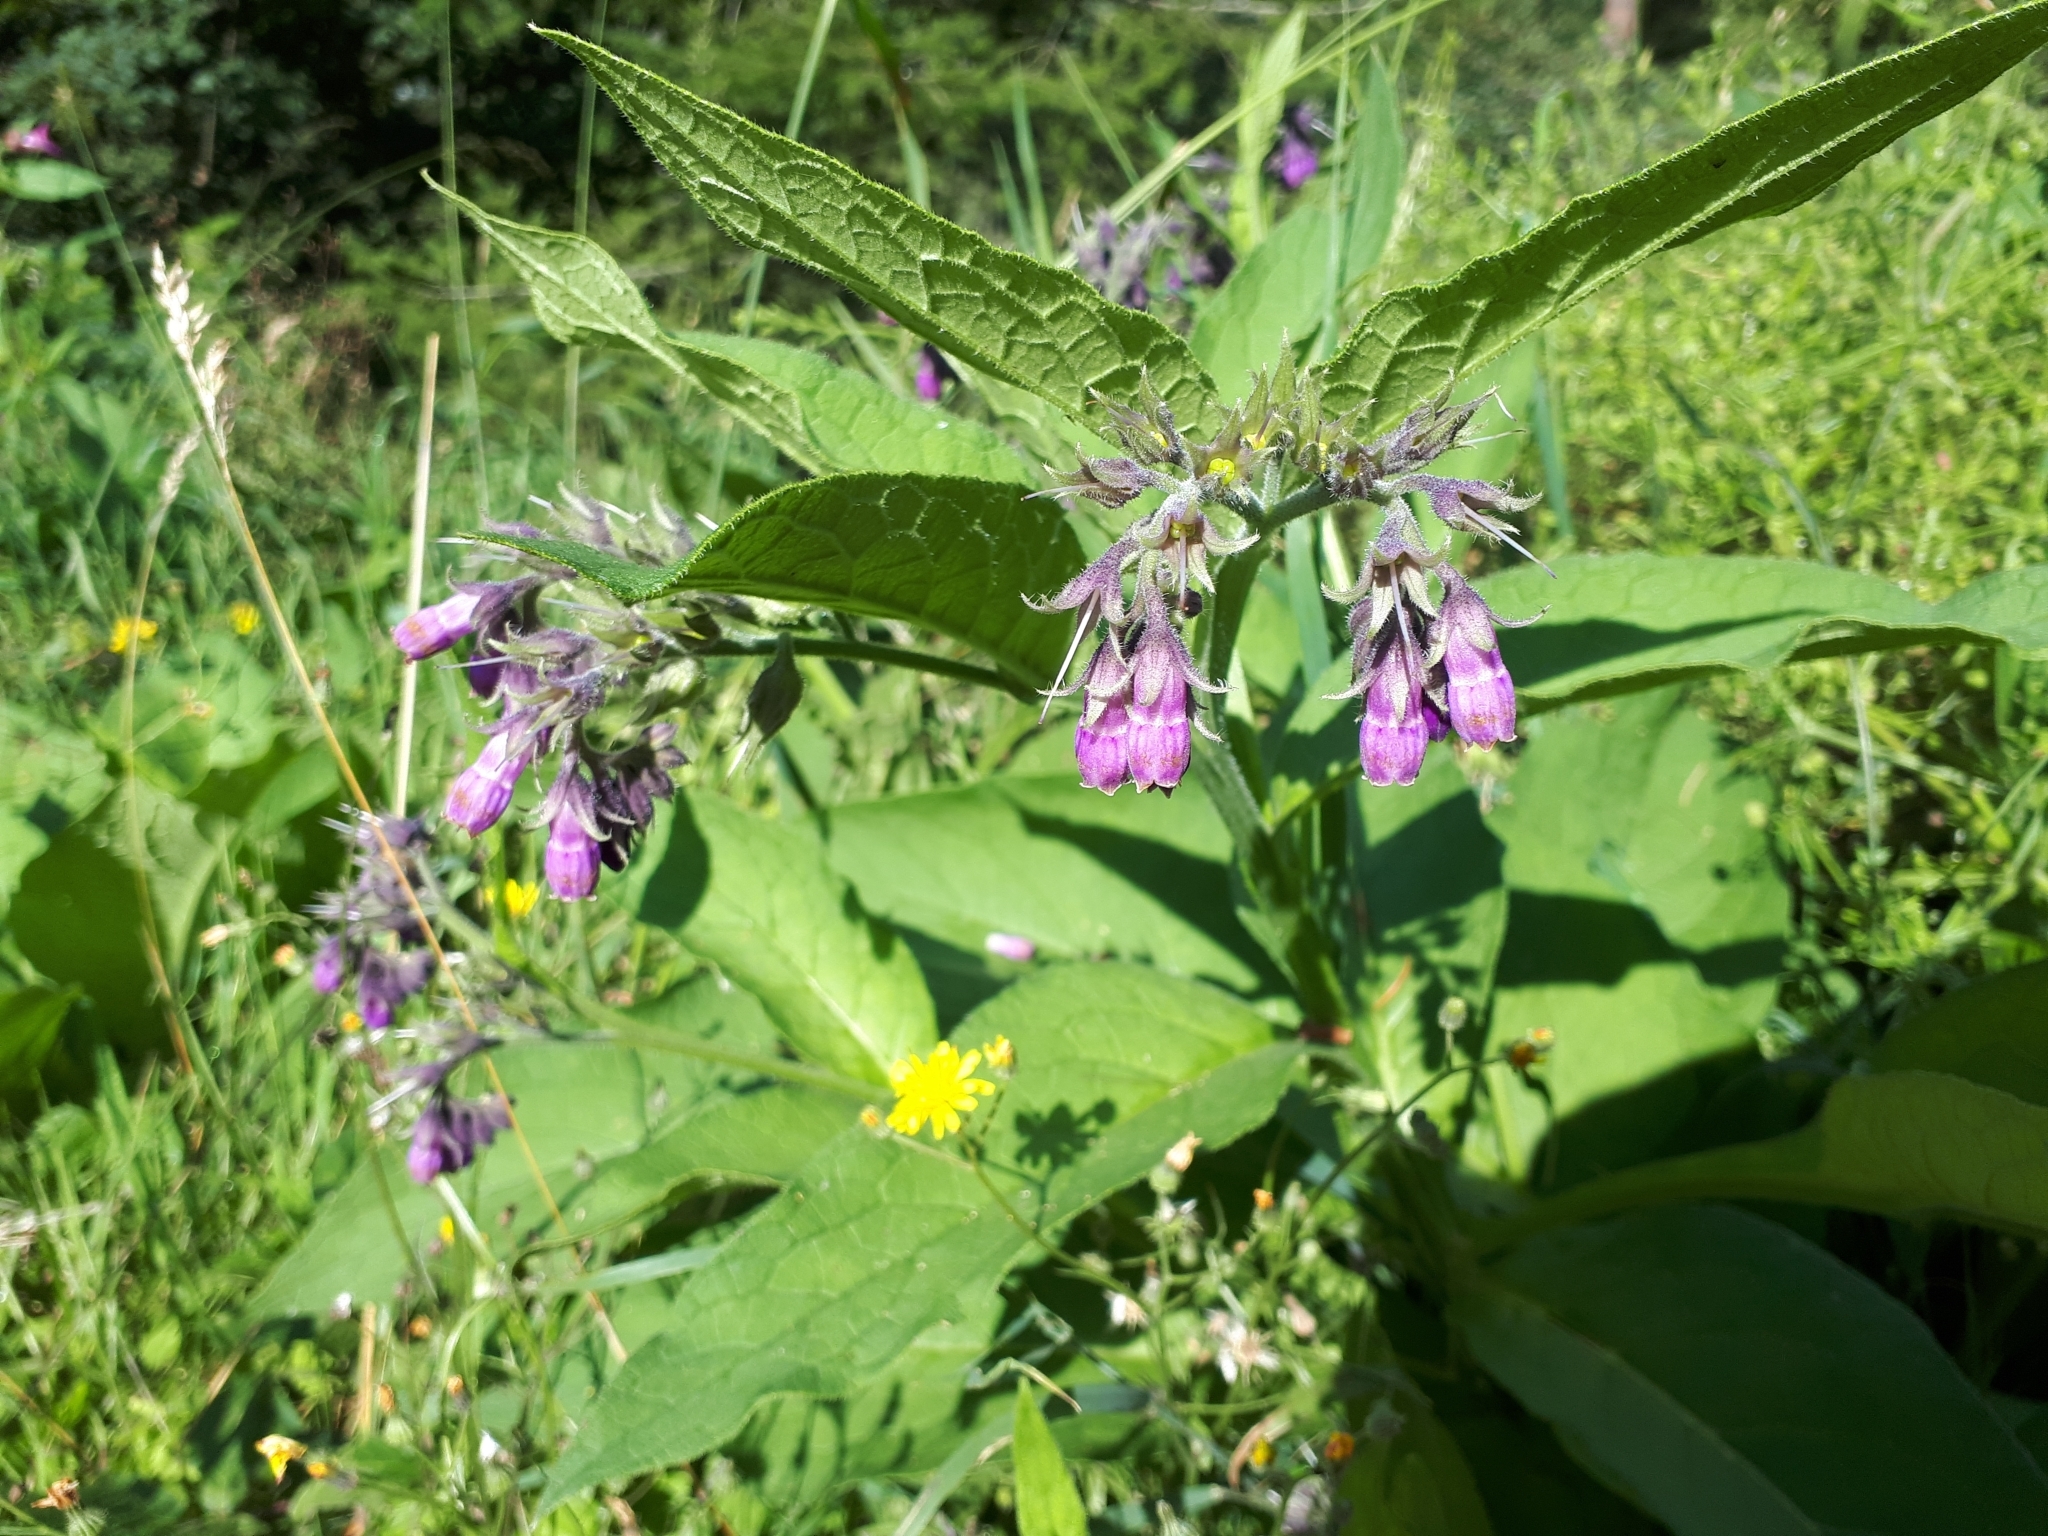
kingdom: Plantae
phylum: Tracheophyta
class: Magnoliopsida
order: Boraginales
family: Boraginaceae
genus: Symphytum
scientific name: Symphytum officinale
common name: Common comfrey
